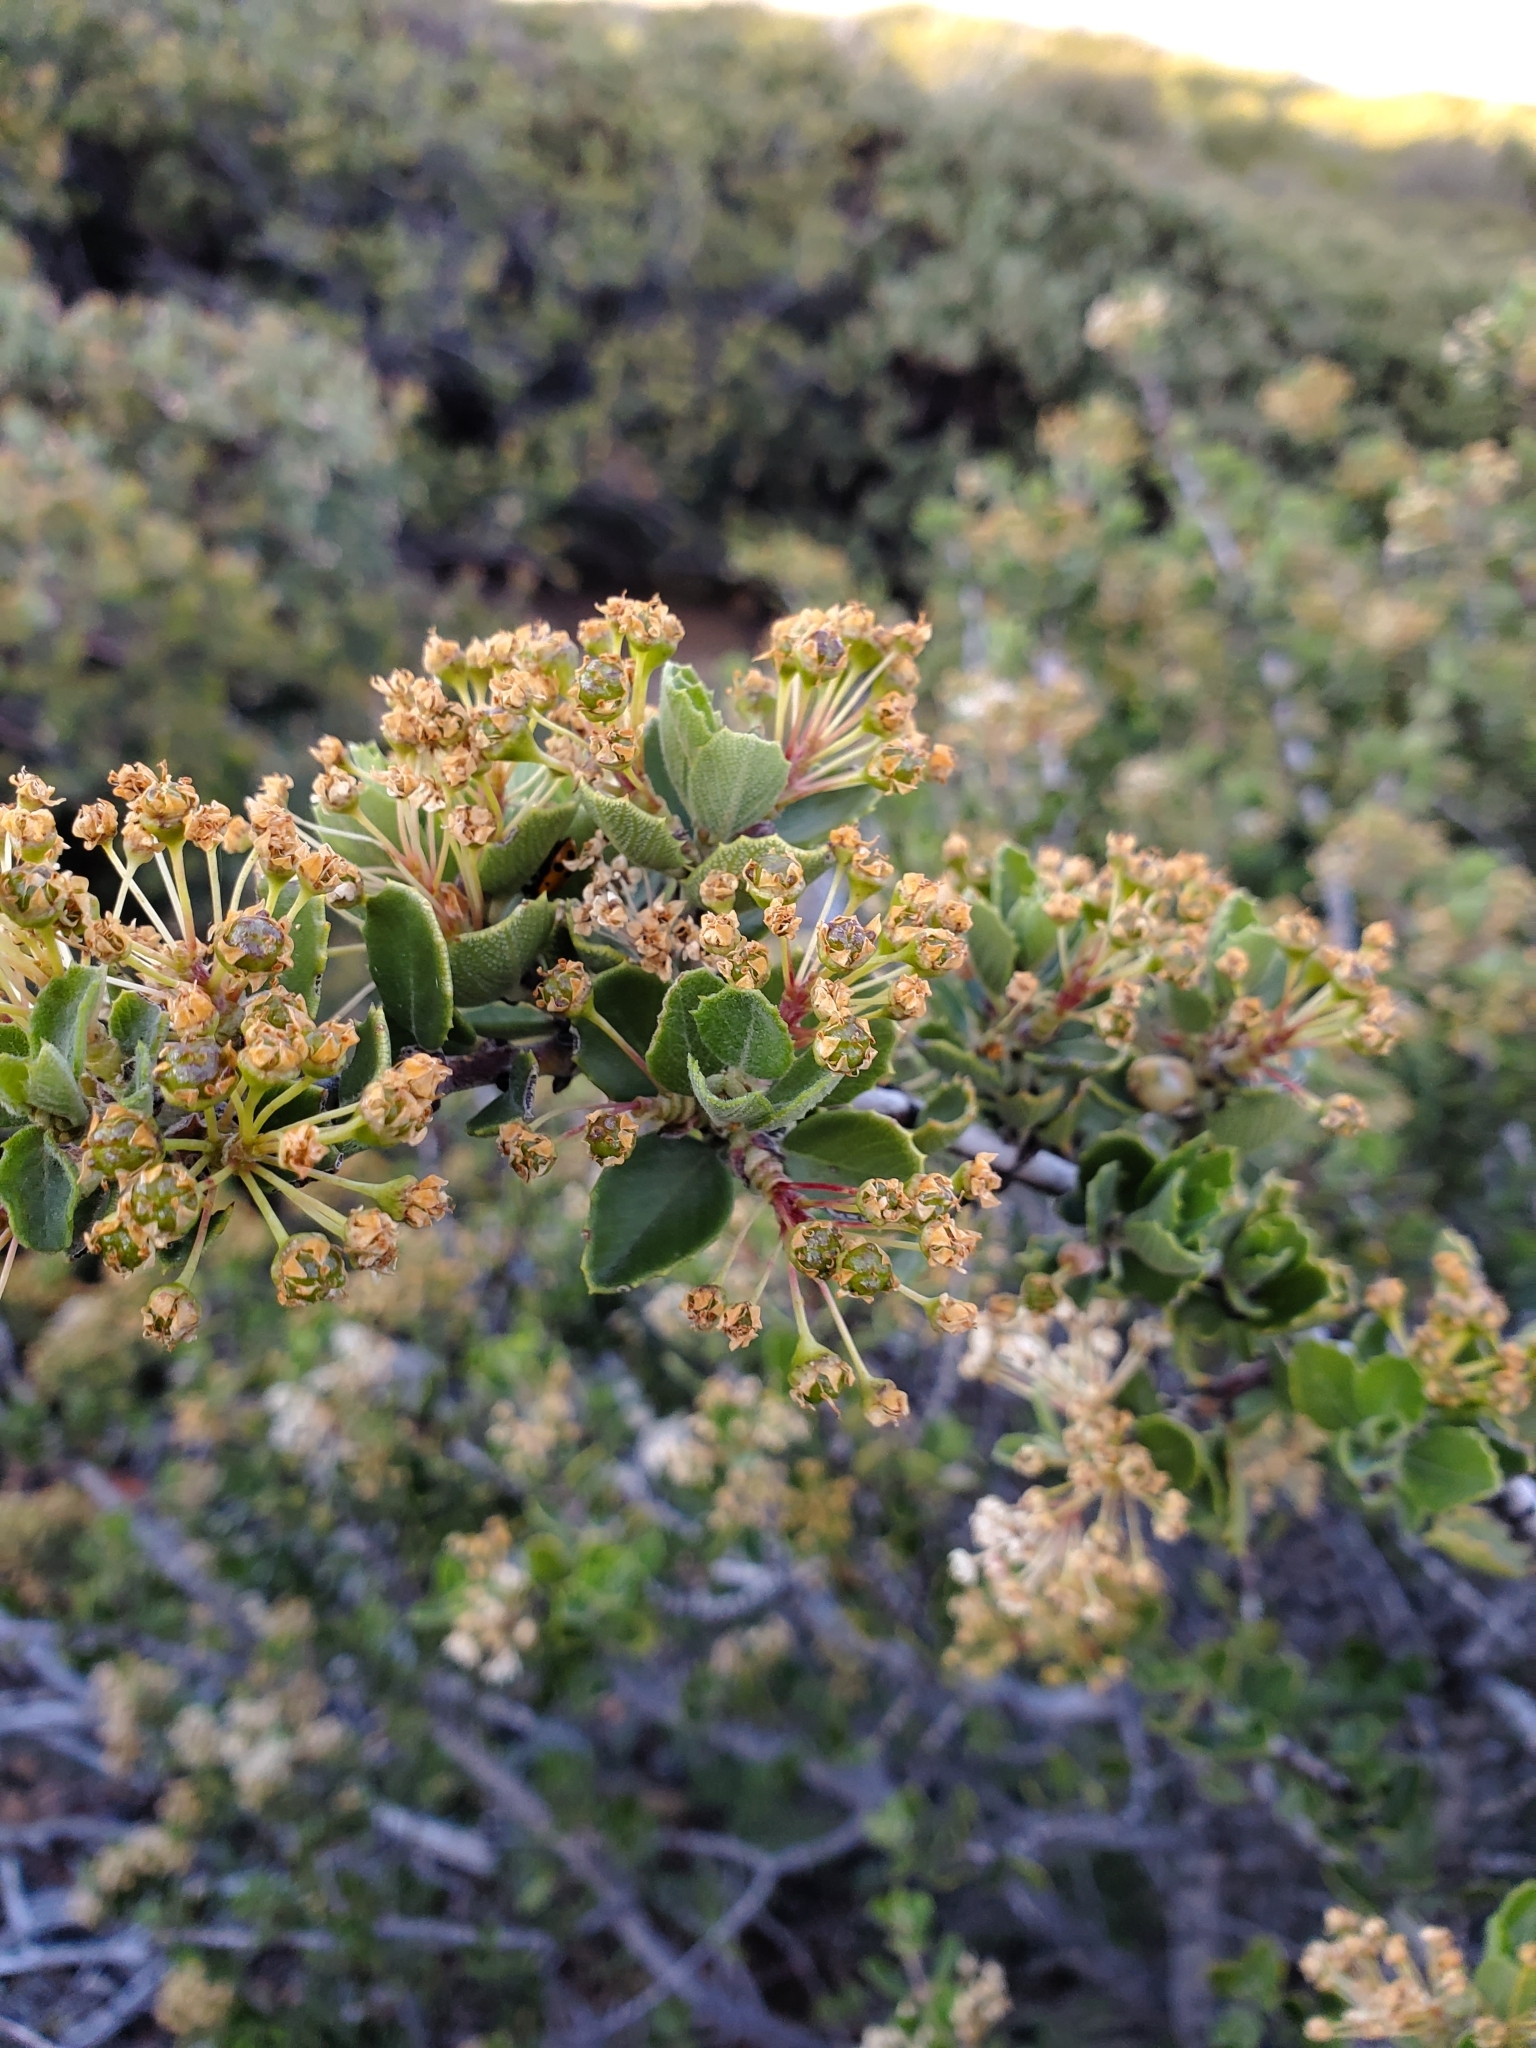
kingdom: Plantae
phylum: Tracheophyta
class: Magnoliopsida
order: Rosales
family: Rhamnaceae
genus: Ceanothus
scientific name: Ceanothus perplexans
